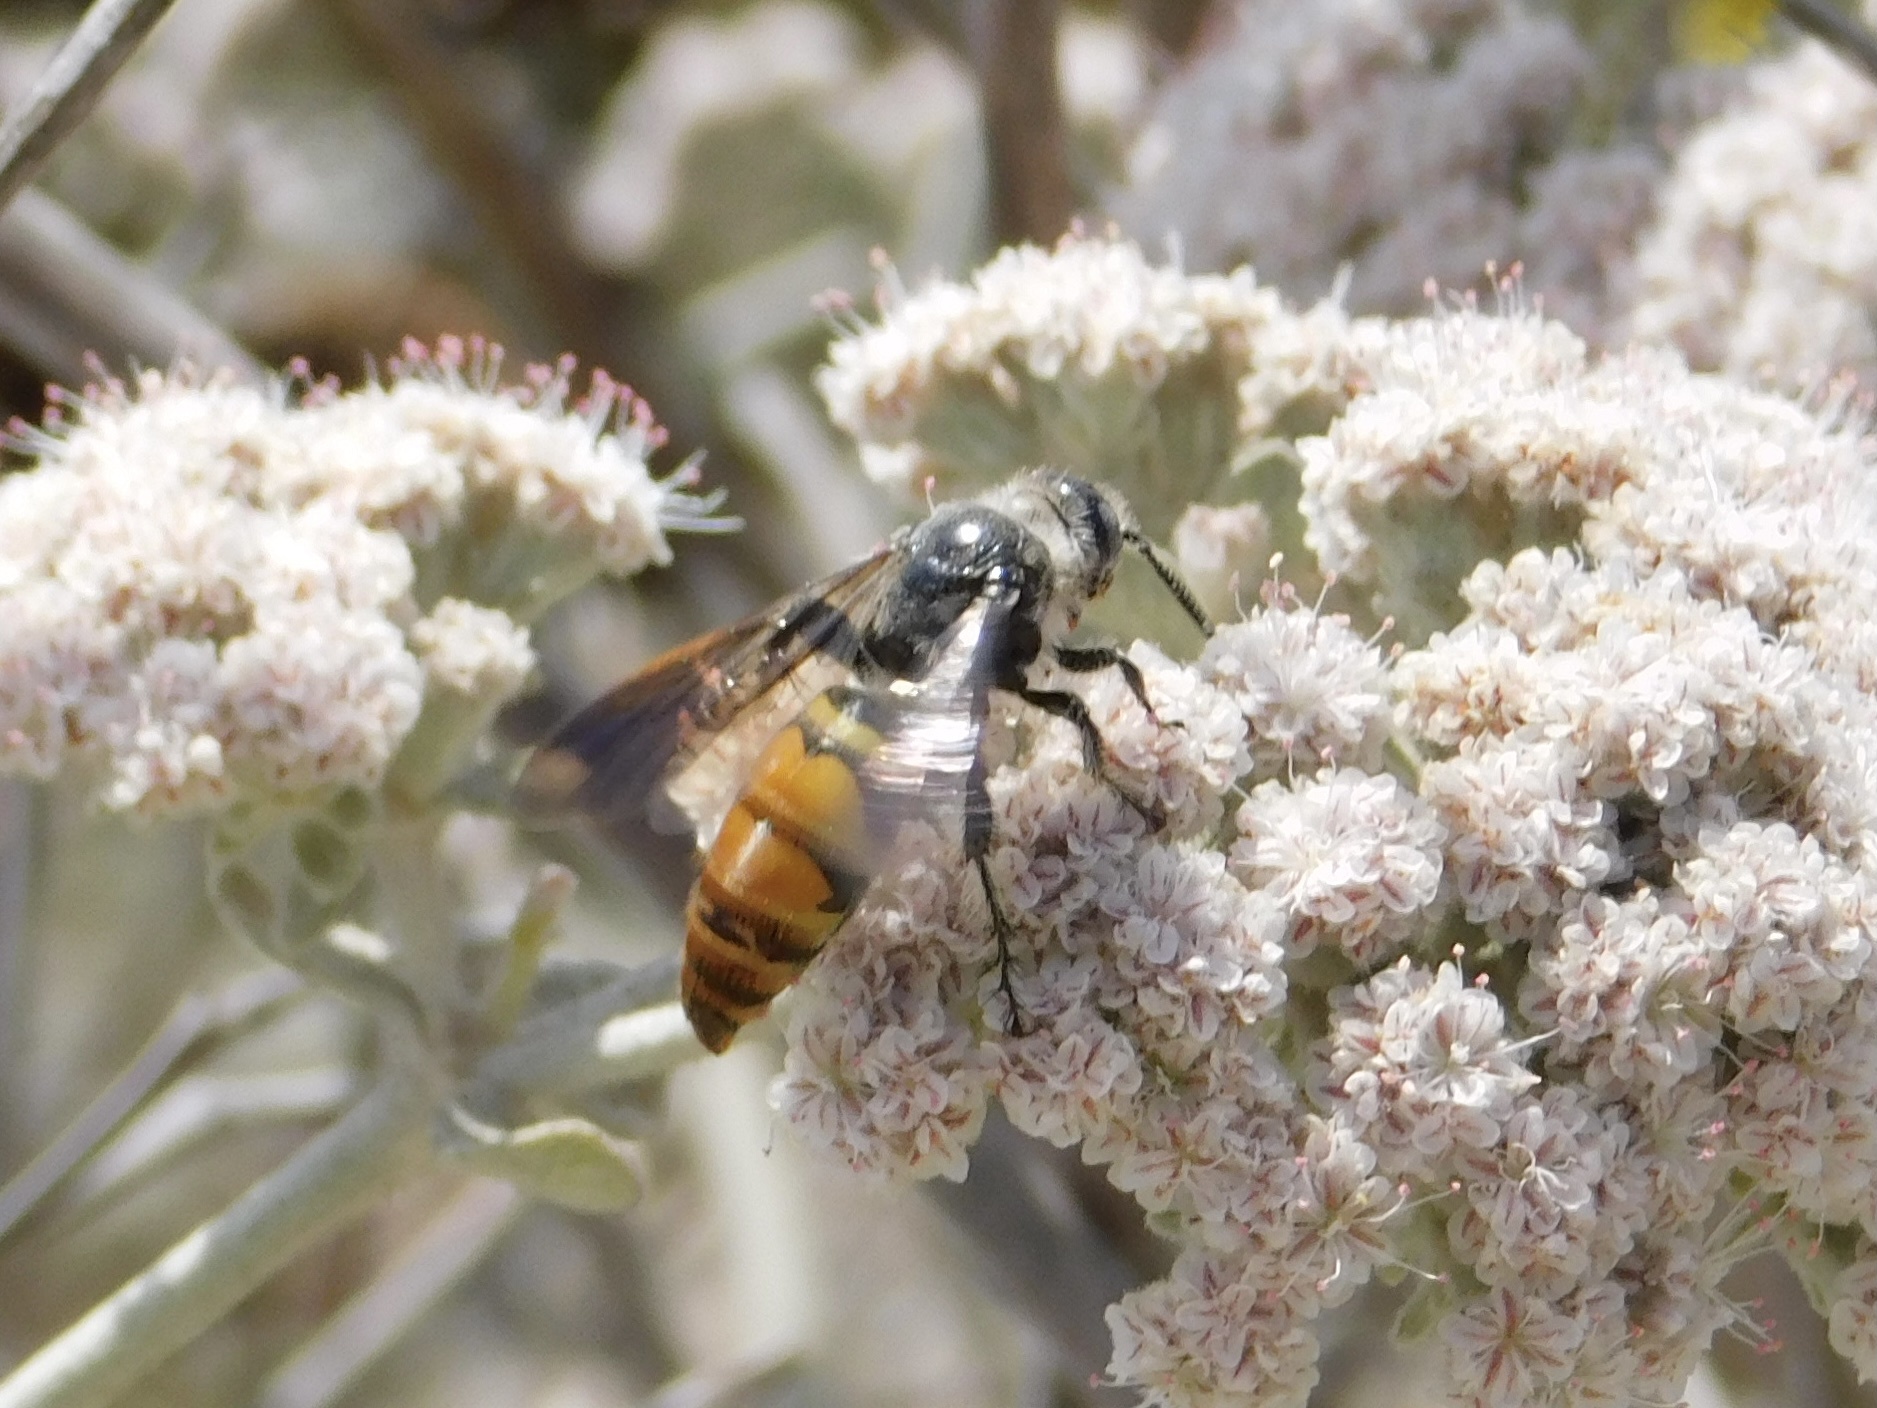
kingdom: Animalia
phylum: Arthropoda
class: Insecta
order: Hymenoptera
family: Scoliidae
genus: Dielis
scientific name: Dielis tolteca
